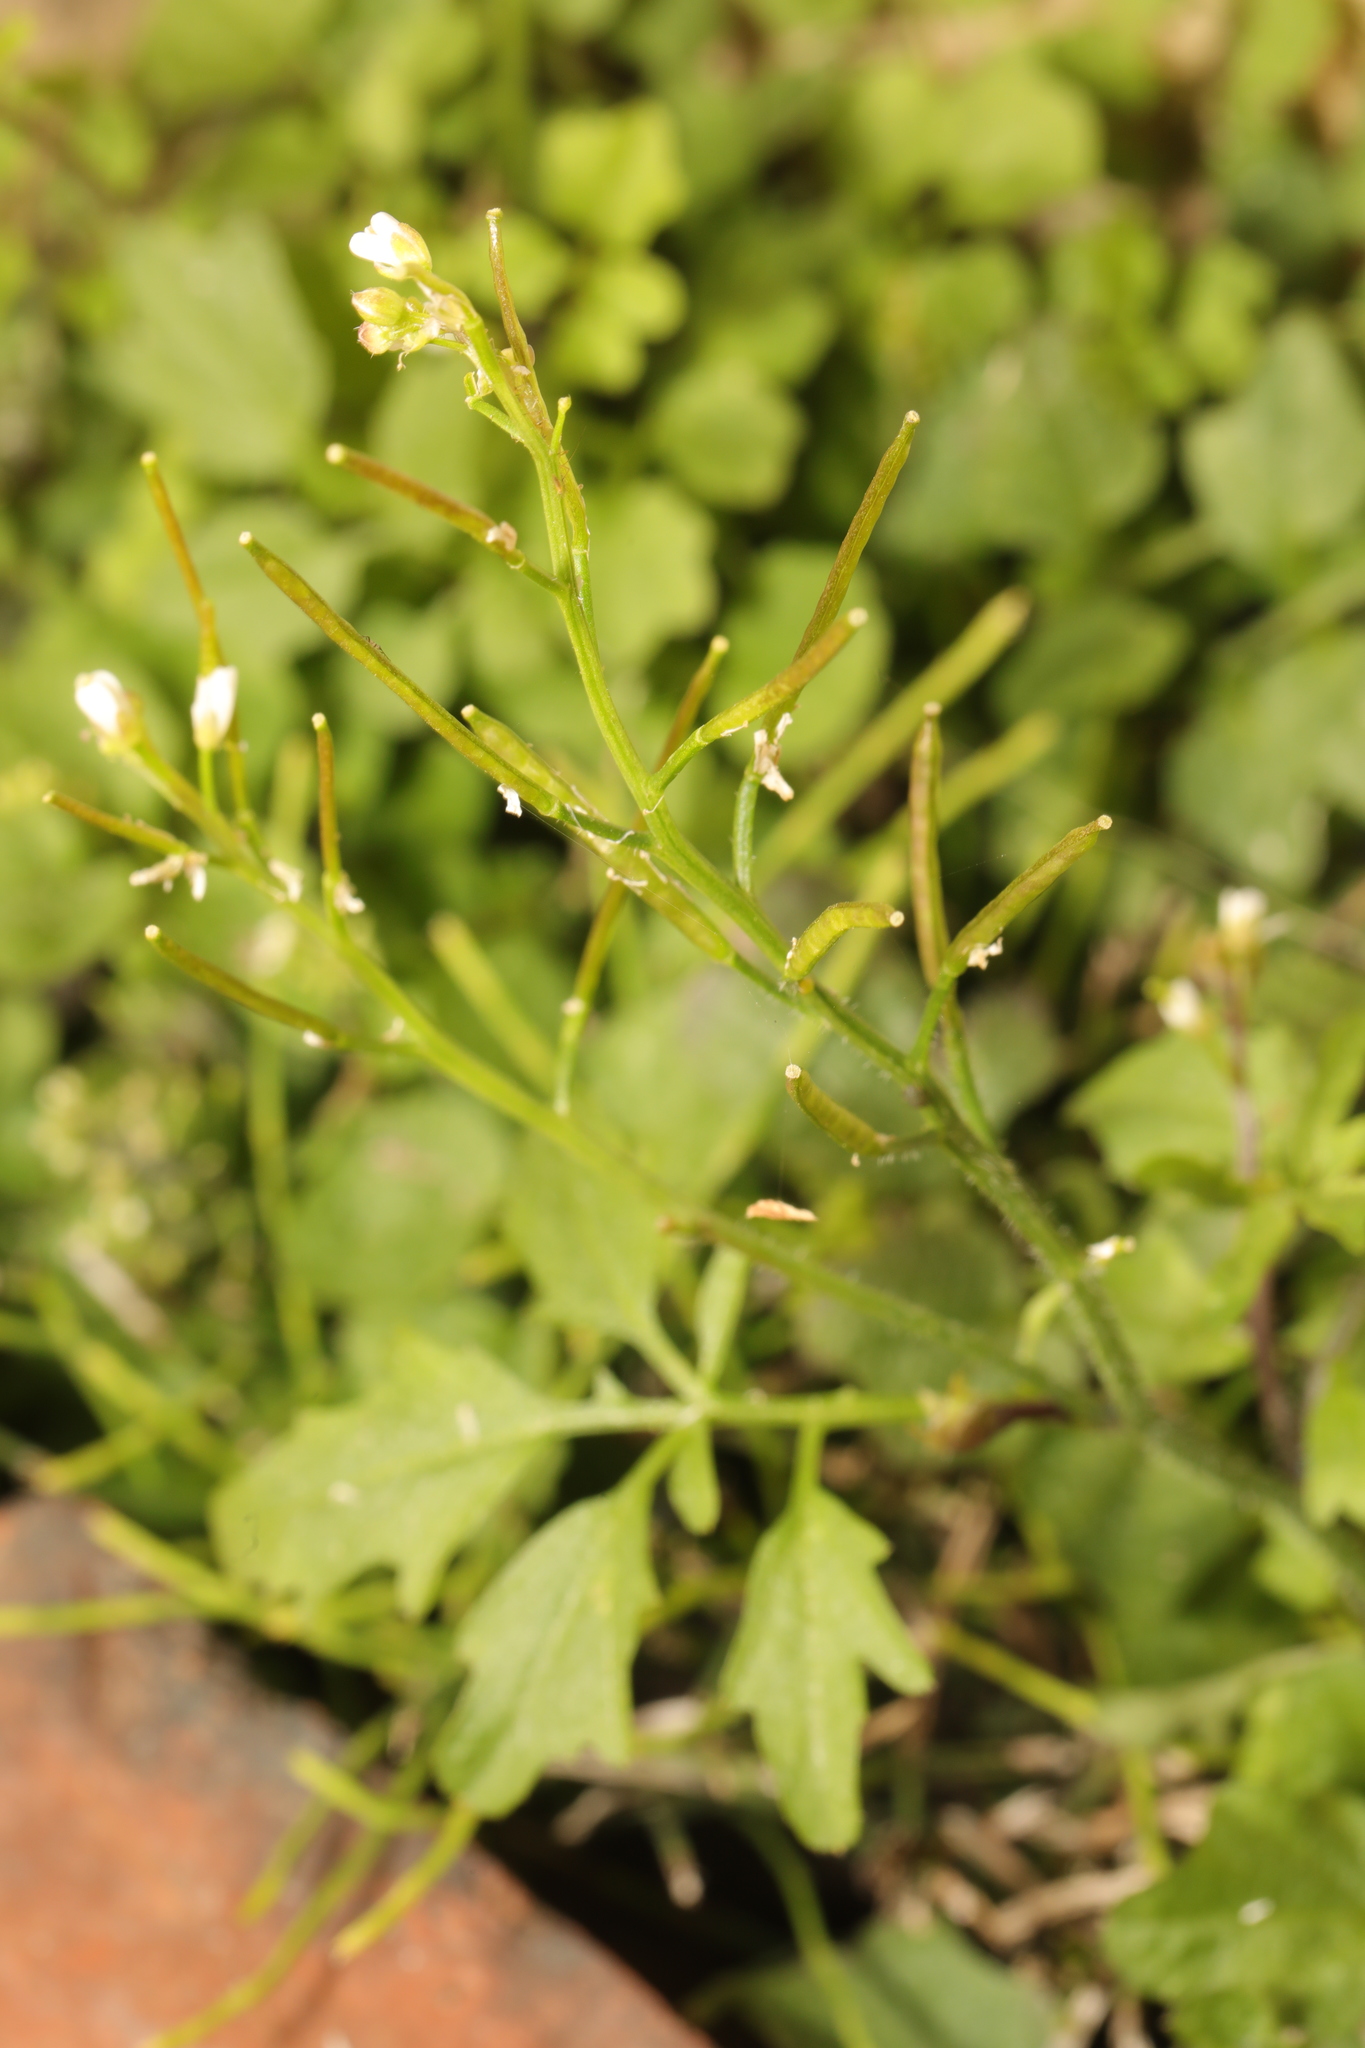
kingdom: Plantae
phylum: Tracheophyta
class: Magnoliopsida
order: Brassicales
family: Brassicaceae
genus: Cardamine
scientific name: Cardamine flexuosa
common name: Woodland bittercress
